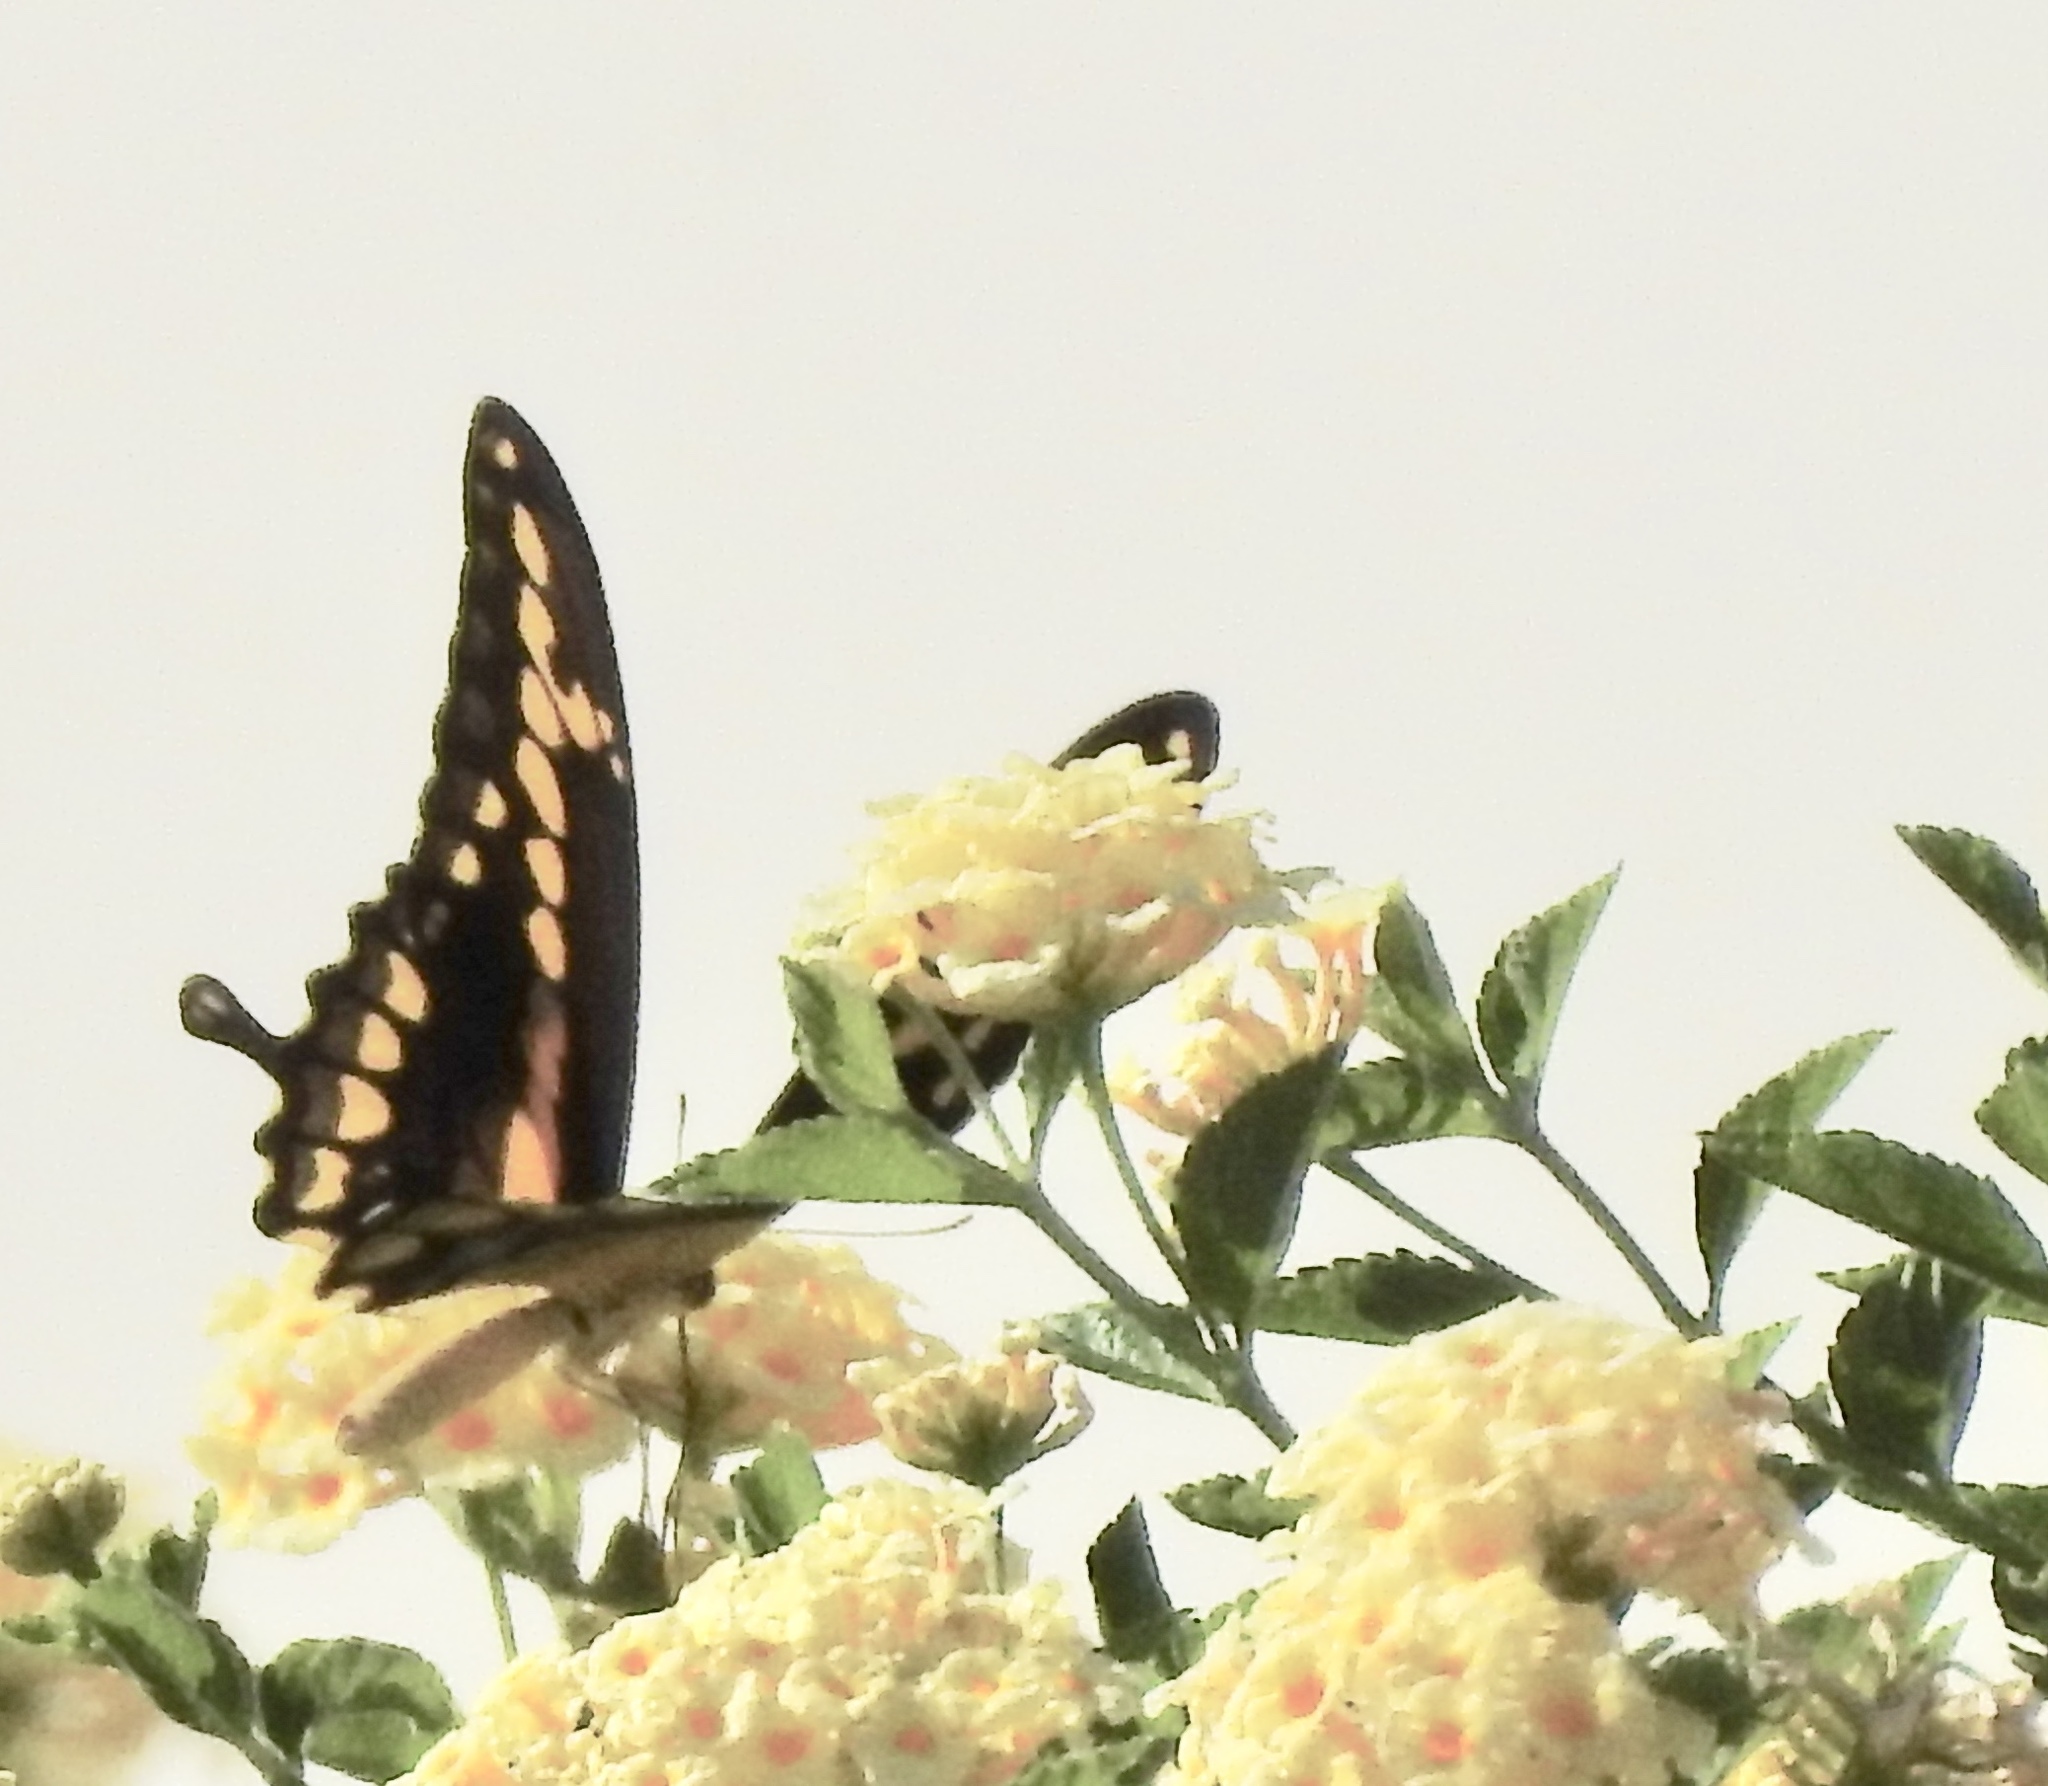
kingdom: Animalia
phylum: Arthropoda
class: Insecta
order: Lepidoptera
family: Papilionidae
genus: Papilio
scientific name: Papilio rumiko
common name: Western giant swallowtail
